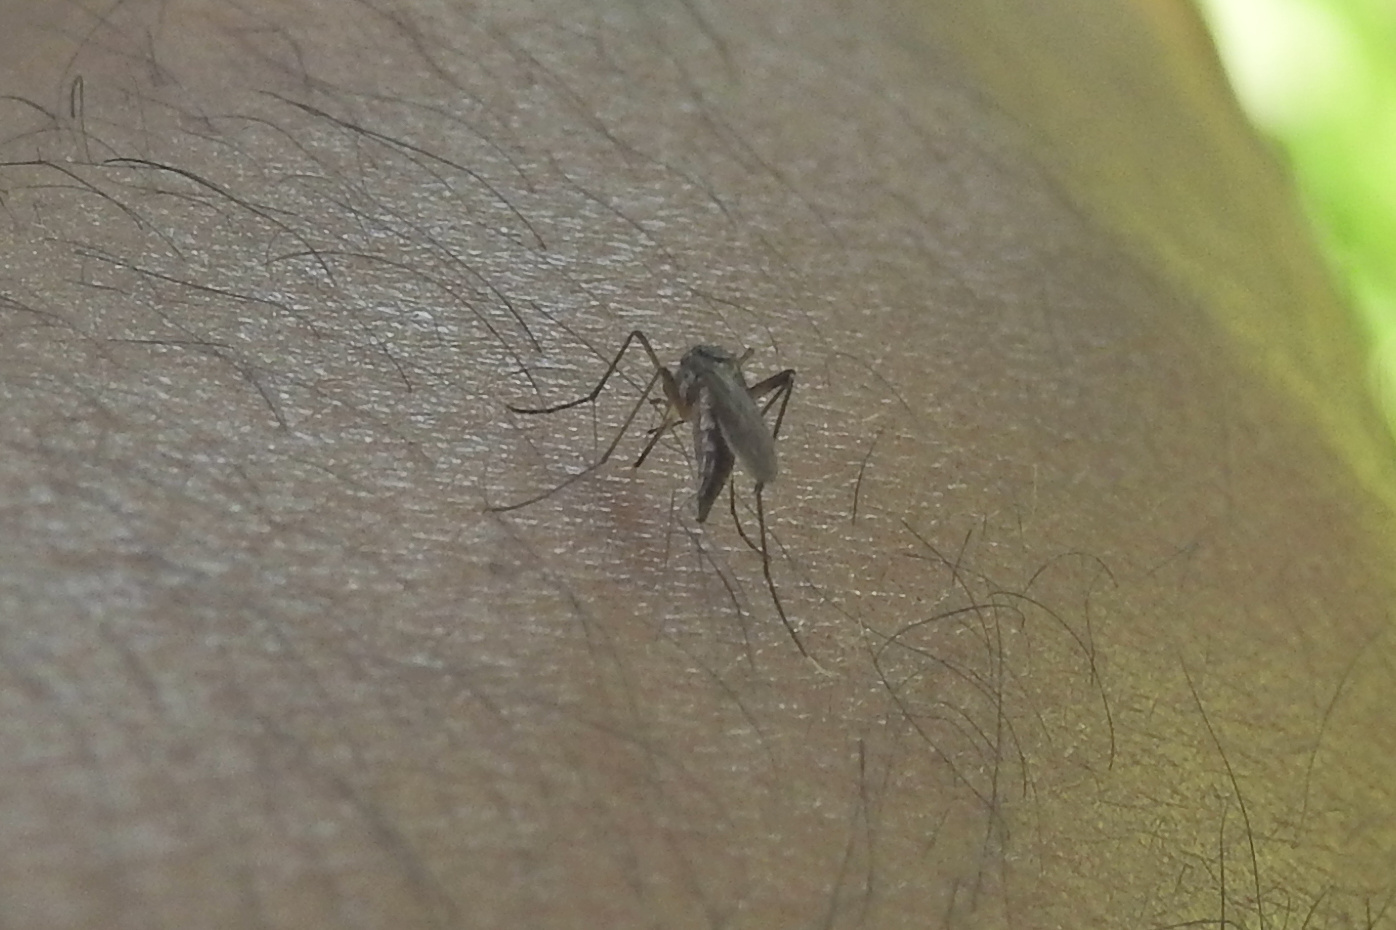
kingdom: Animalia
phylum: Arthropoda
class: Insecta
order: Diptera
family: Culicidae
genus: Psorophora
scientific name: Psorophora ferox
